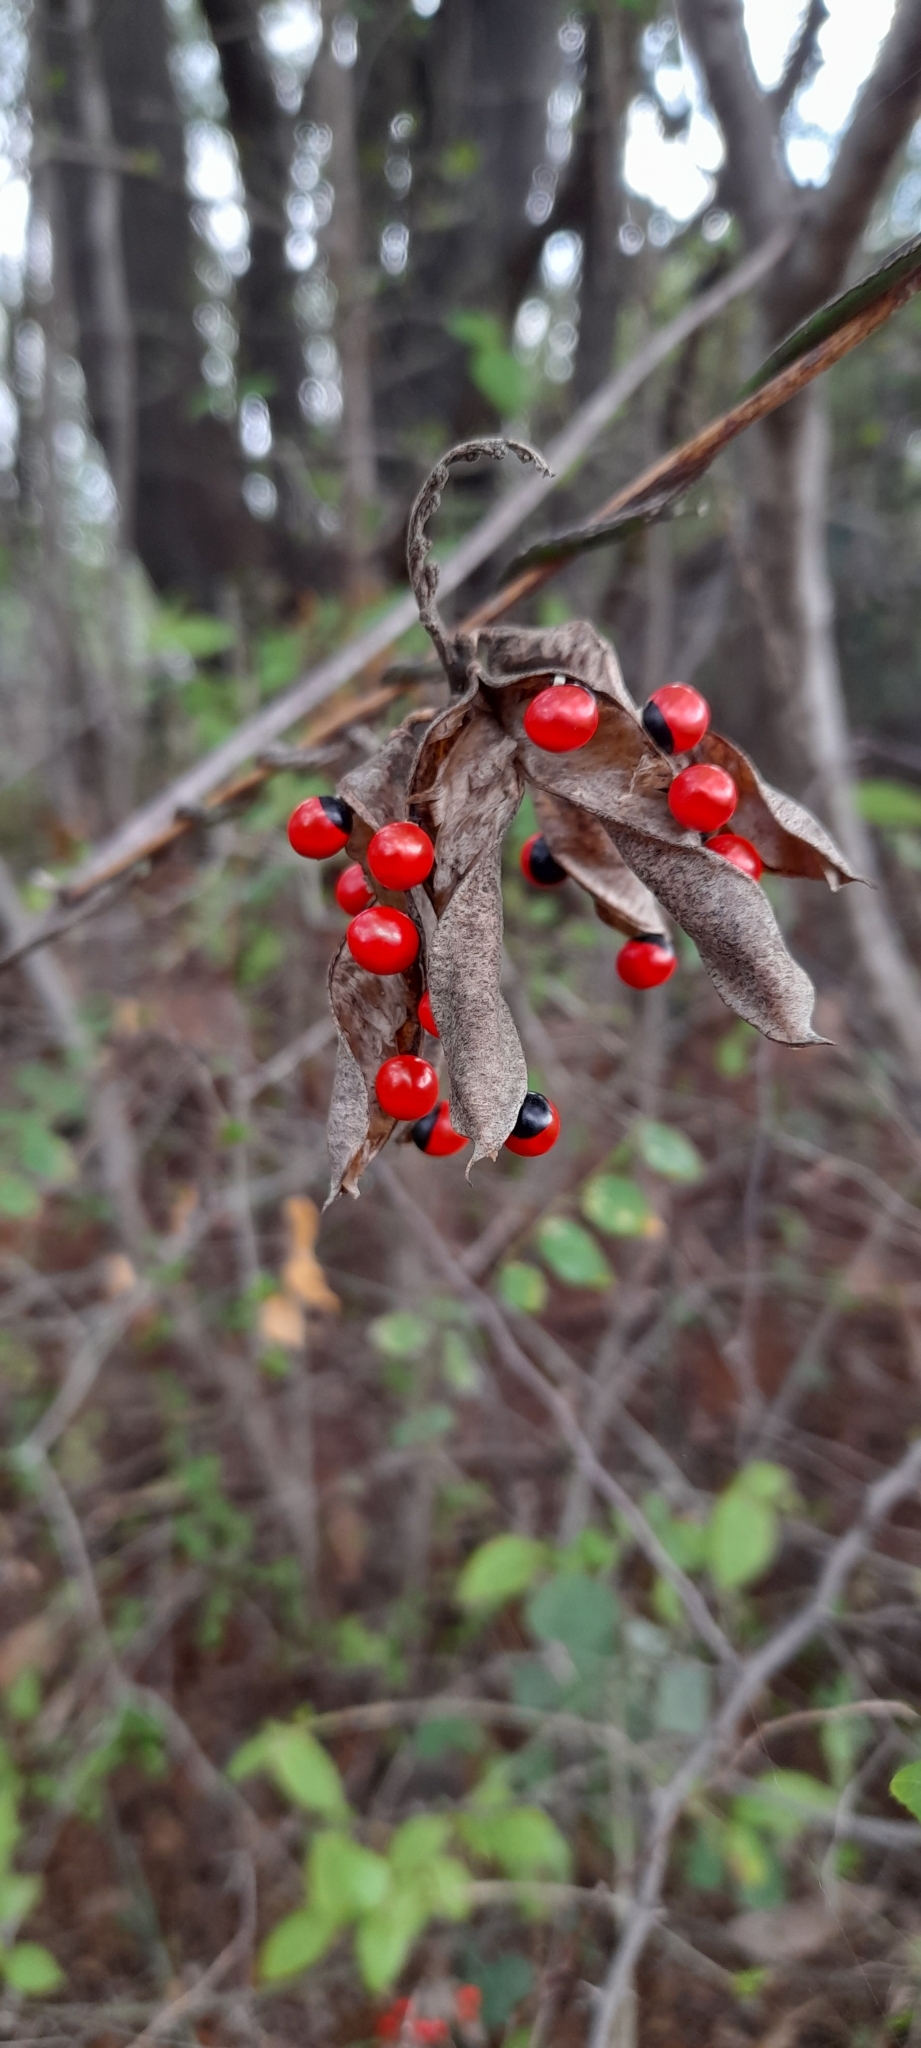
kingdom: Plantae
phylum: Tracheophyta
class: Magnoliopsida
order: Fabales
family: Fabaceae
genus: Abrus
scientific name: Abrus precatorius
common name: Rosarypea
